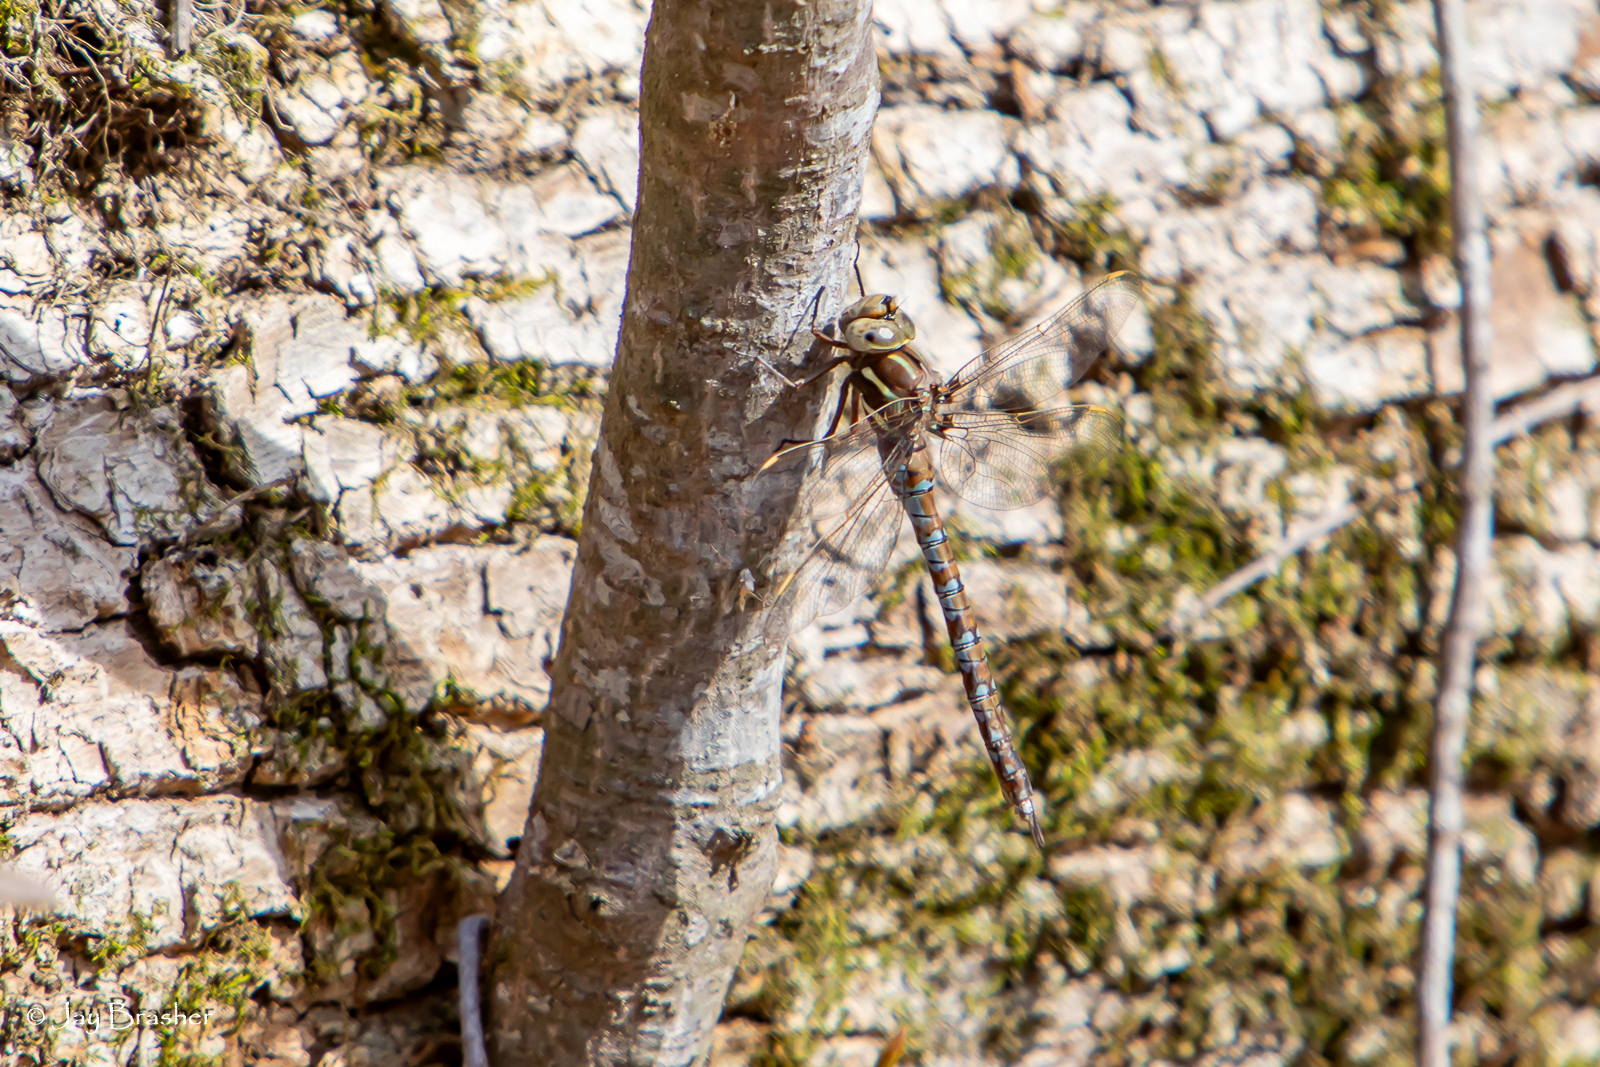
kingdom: Animalia
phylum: Arthropoda
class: Insecta
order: Odonata
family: Aeshnidae
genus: Basiaeschna
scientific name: Basiaeschna janata
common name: Springtime darner
